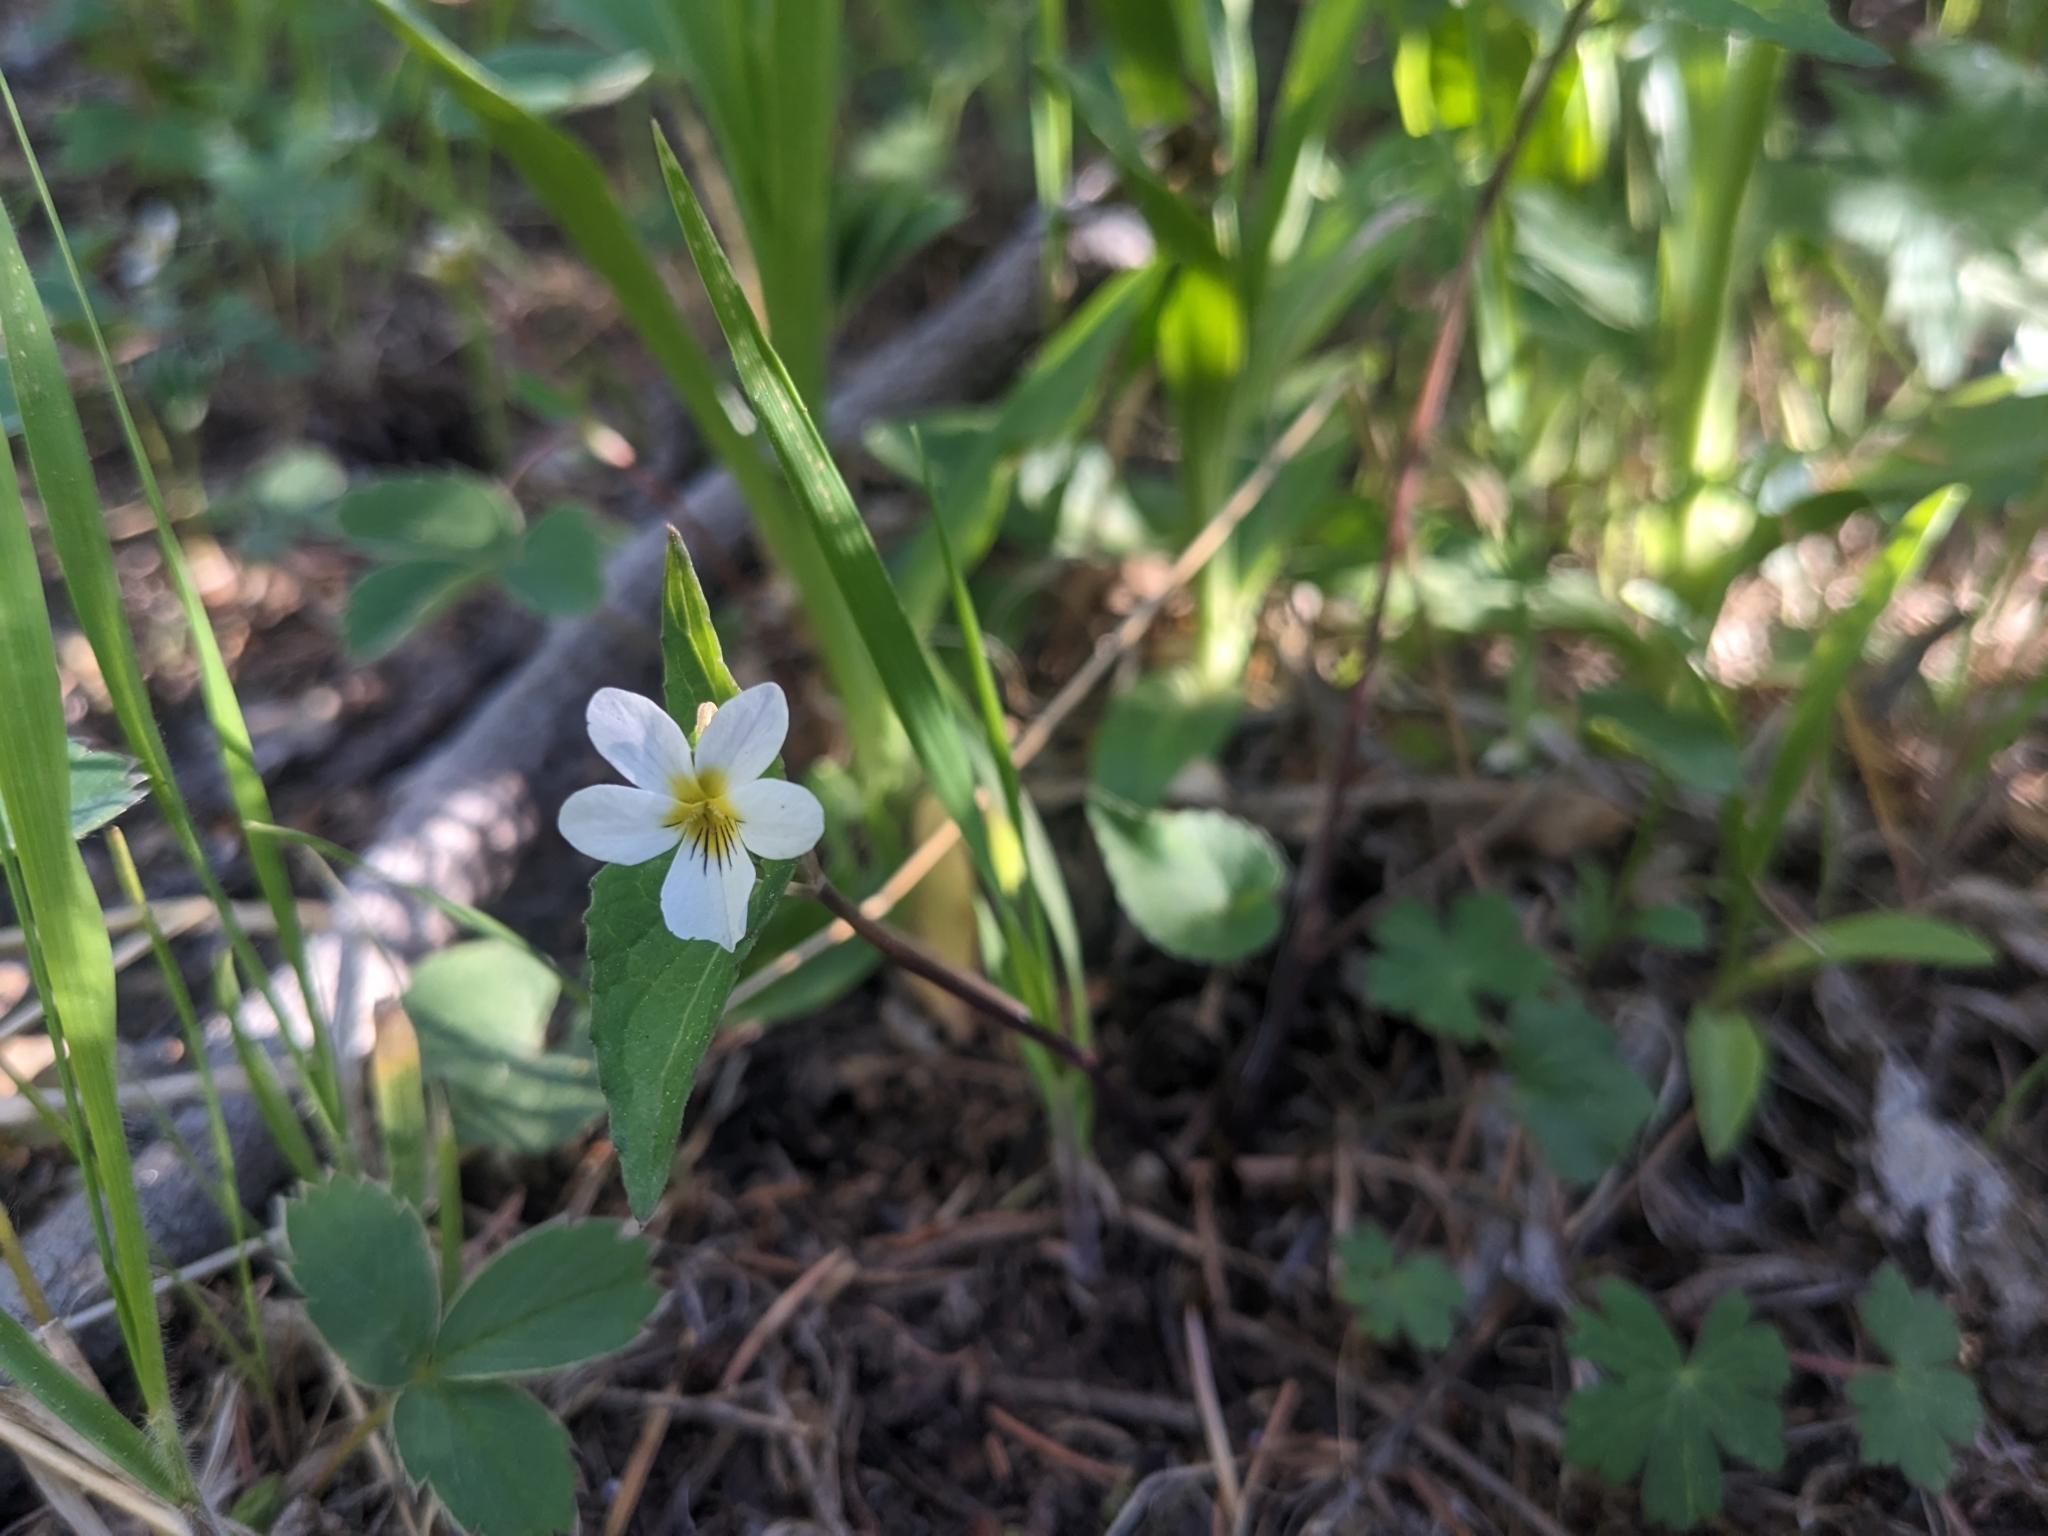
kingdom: Plantae
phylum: Tracheophyta
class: Magnoliopsida
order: Malpighiales
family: Violaceae
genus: Viola
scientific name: Viola canadensis
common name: Canada violet
